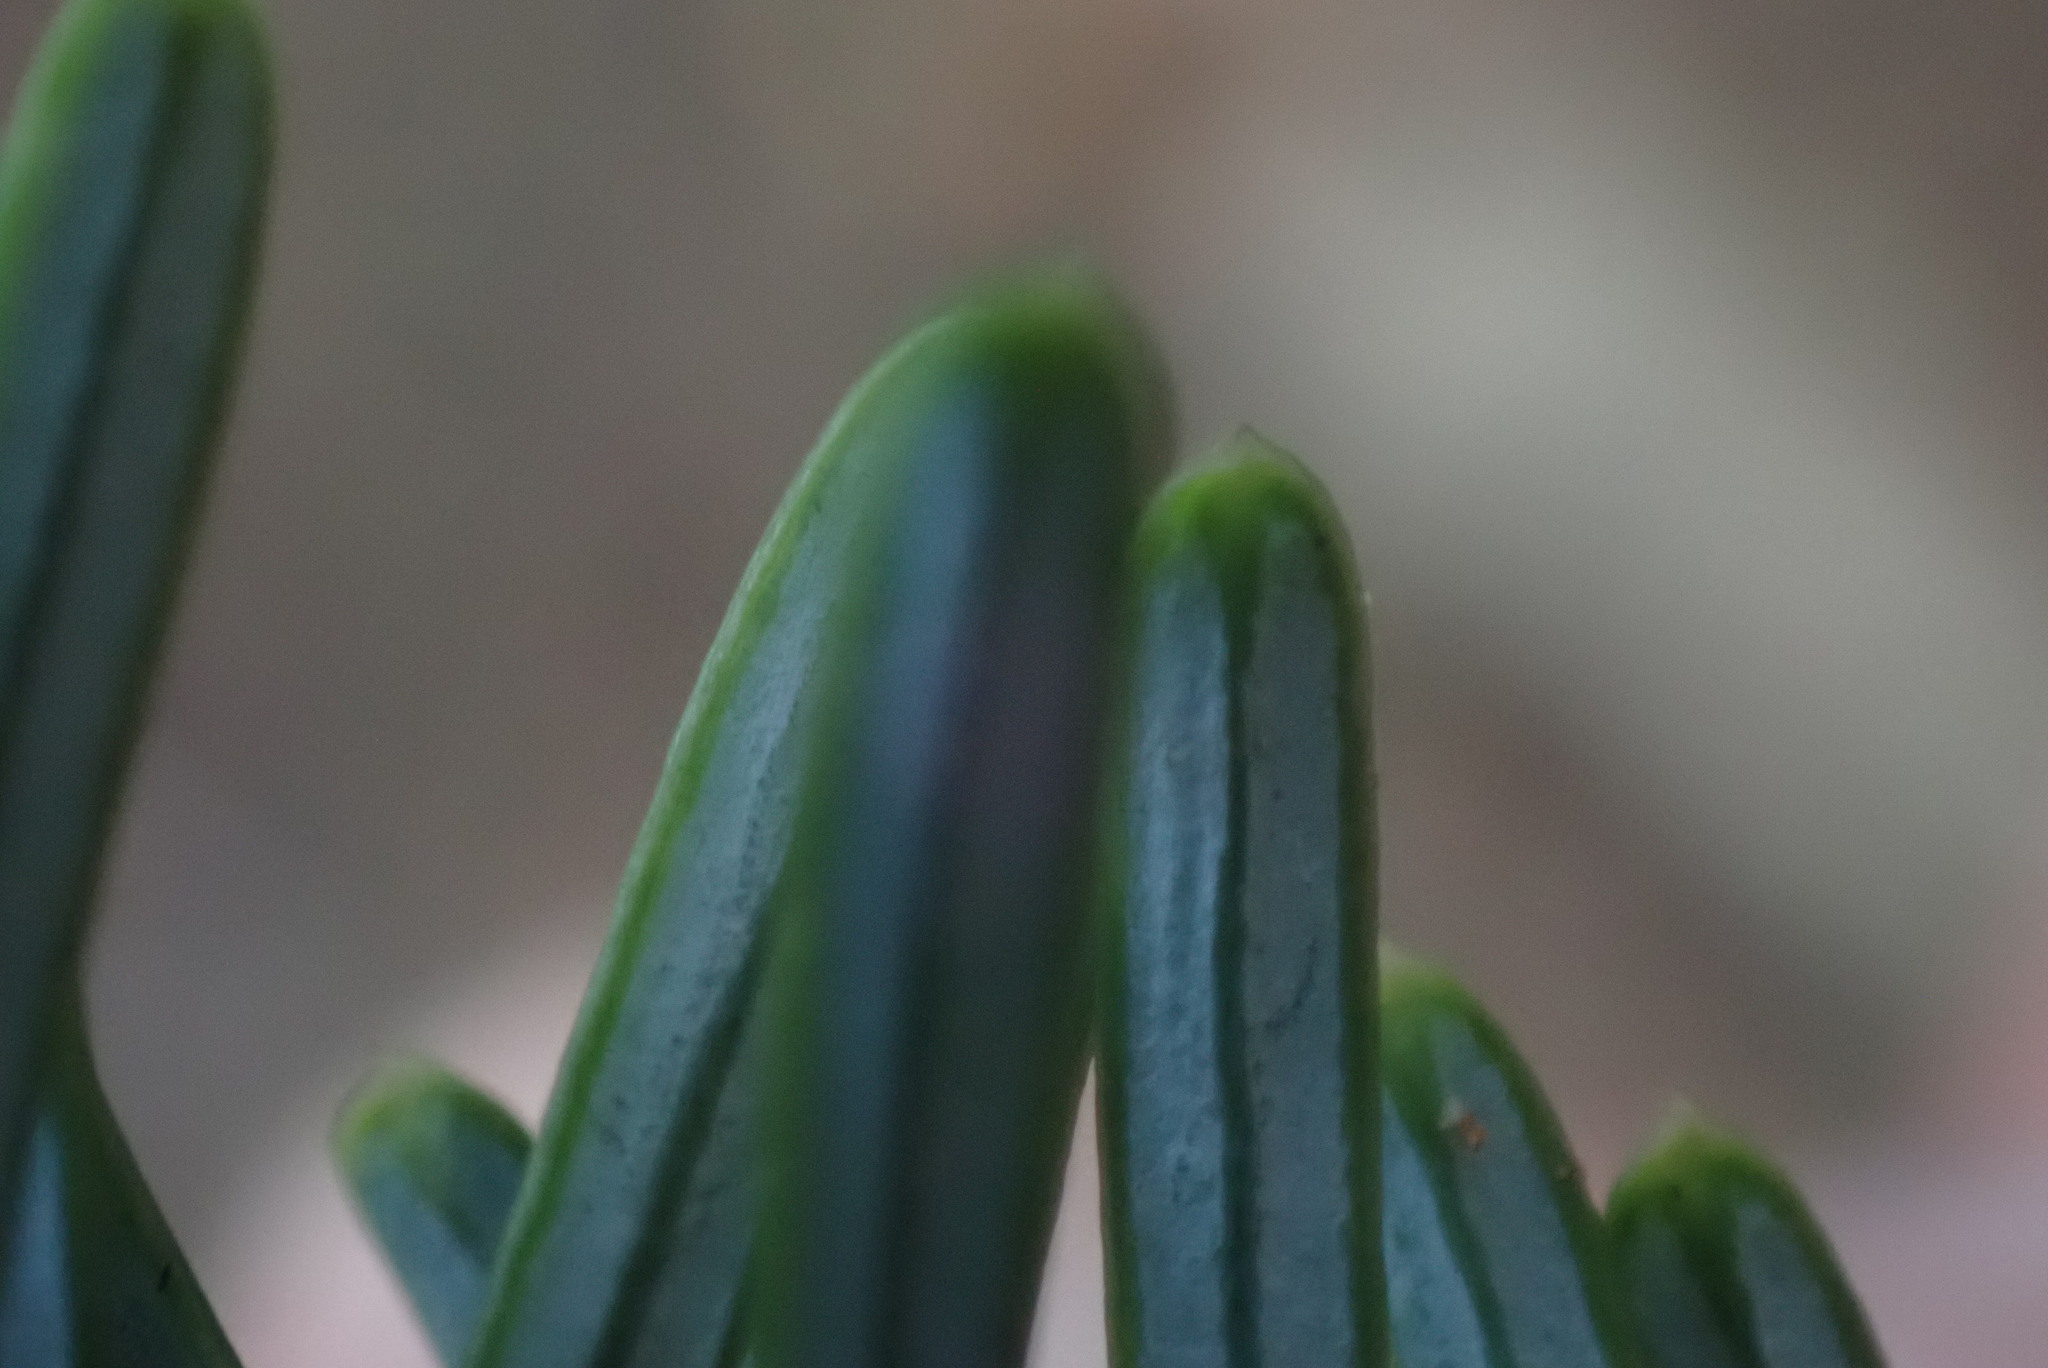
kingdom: Plantae
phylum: Tracheophyta
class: Pinopsida
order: Pinales
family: Pinaceae
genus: Abies
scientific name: Abies amabilis
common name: Pacific silver fir
